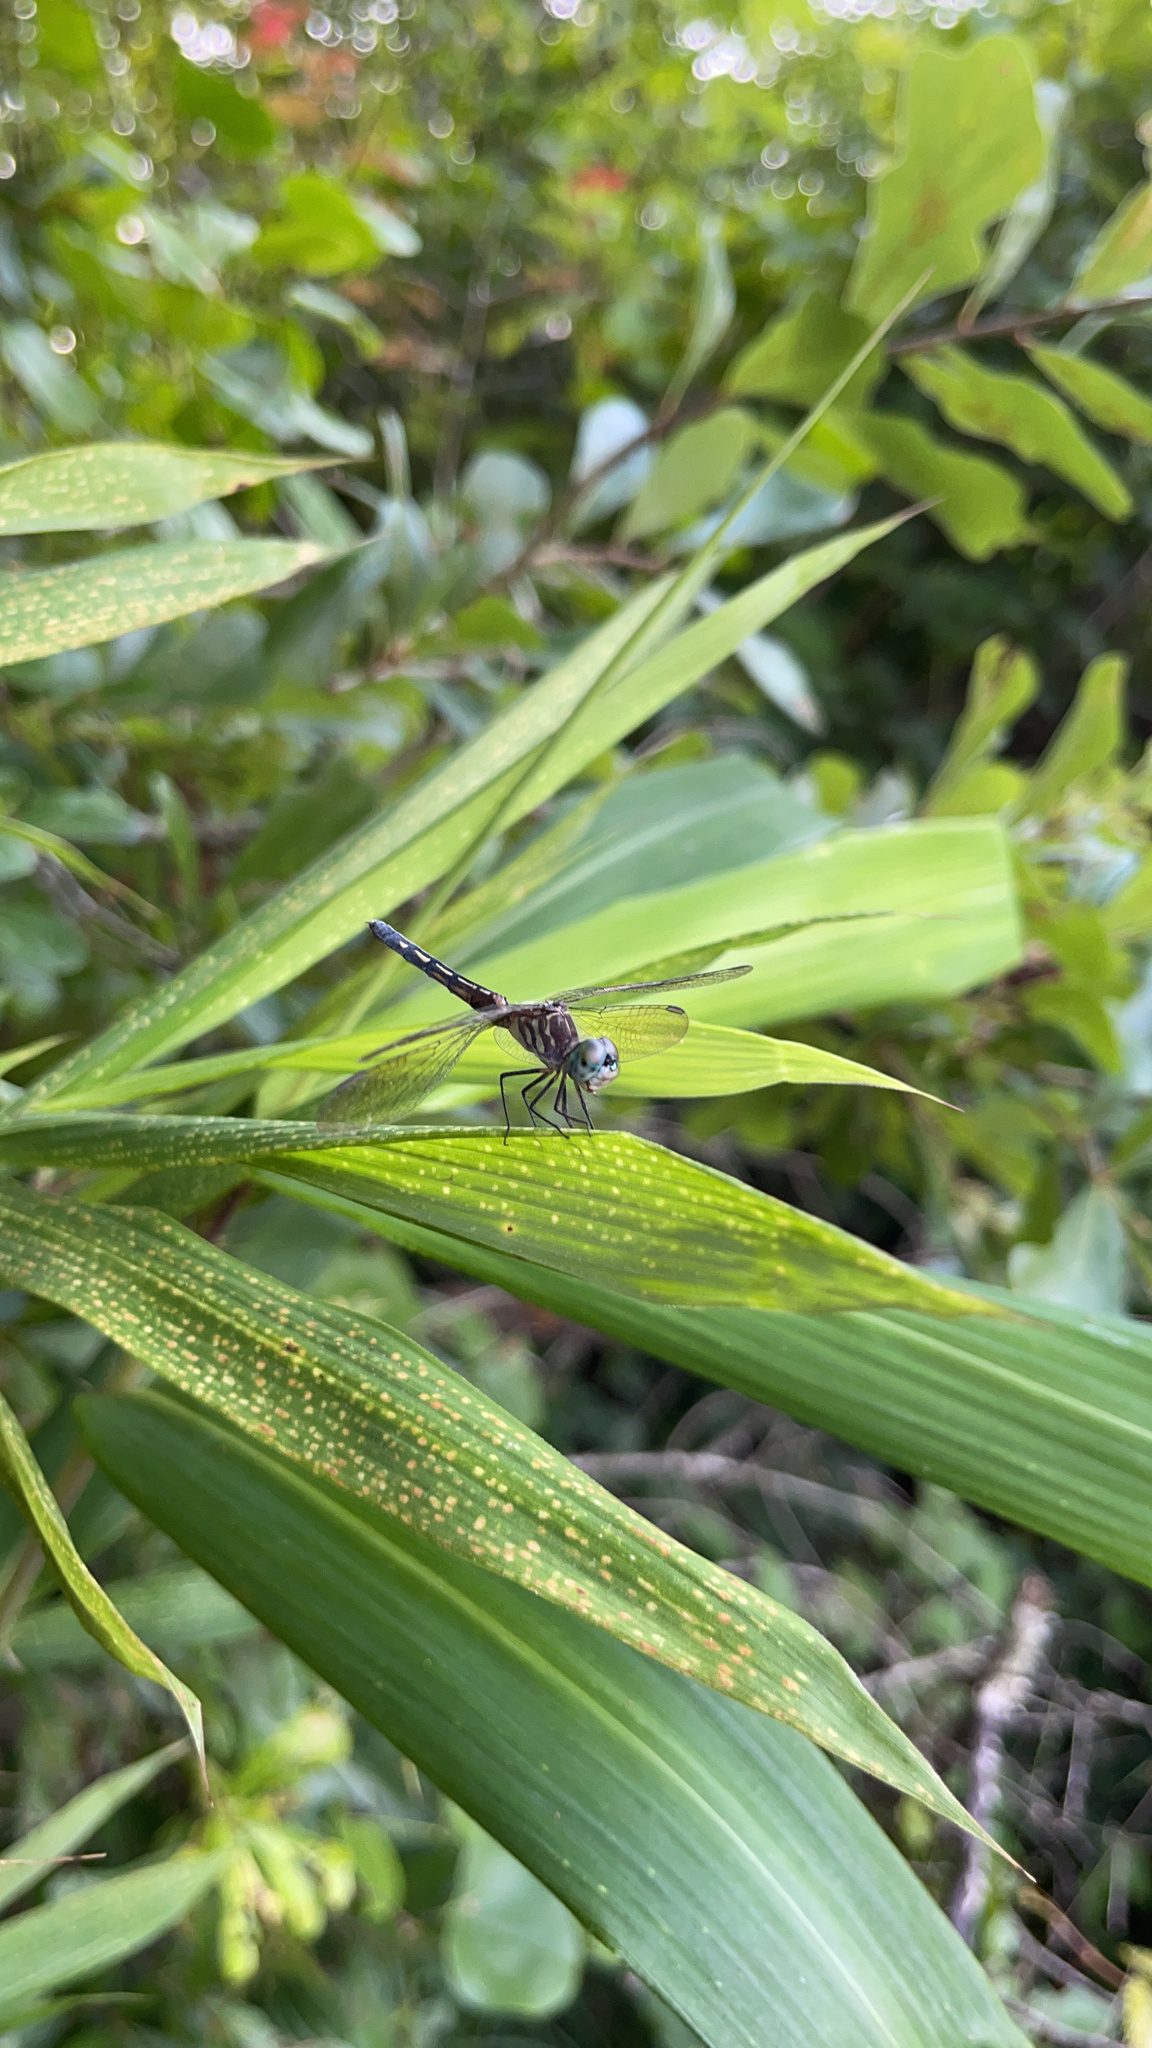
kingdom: Animalia
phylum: Arthropoda
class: Insecta
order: Odonata
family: Libellulidae
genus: Pachydiplax
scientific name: Pachydiplax longipennis
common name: Blue dasher
